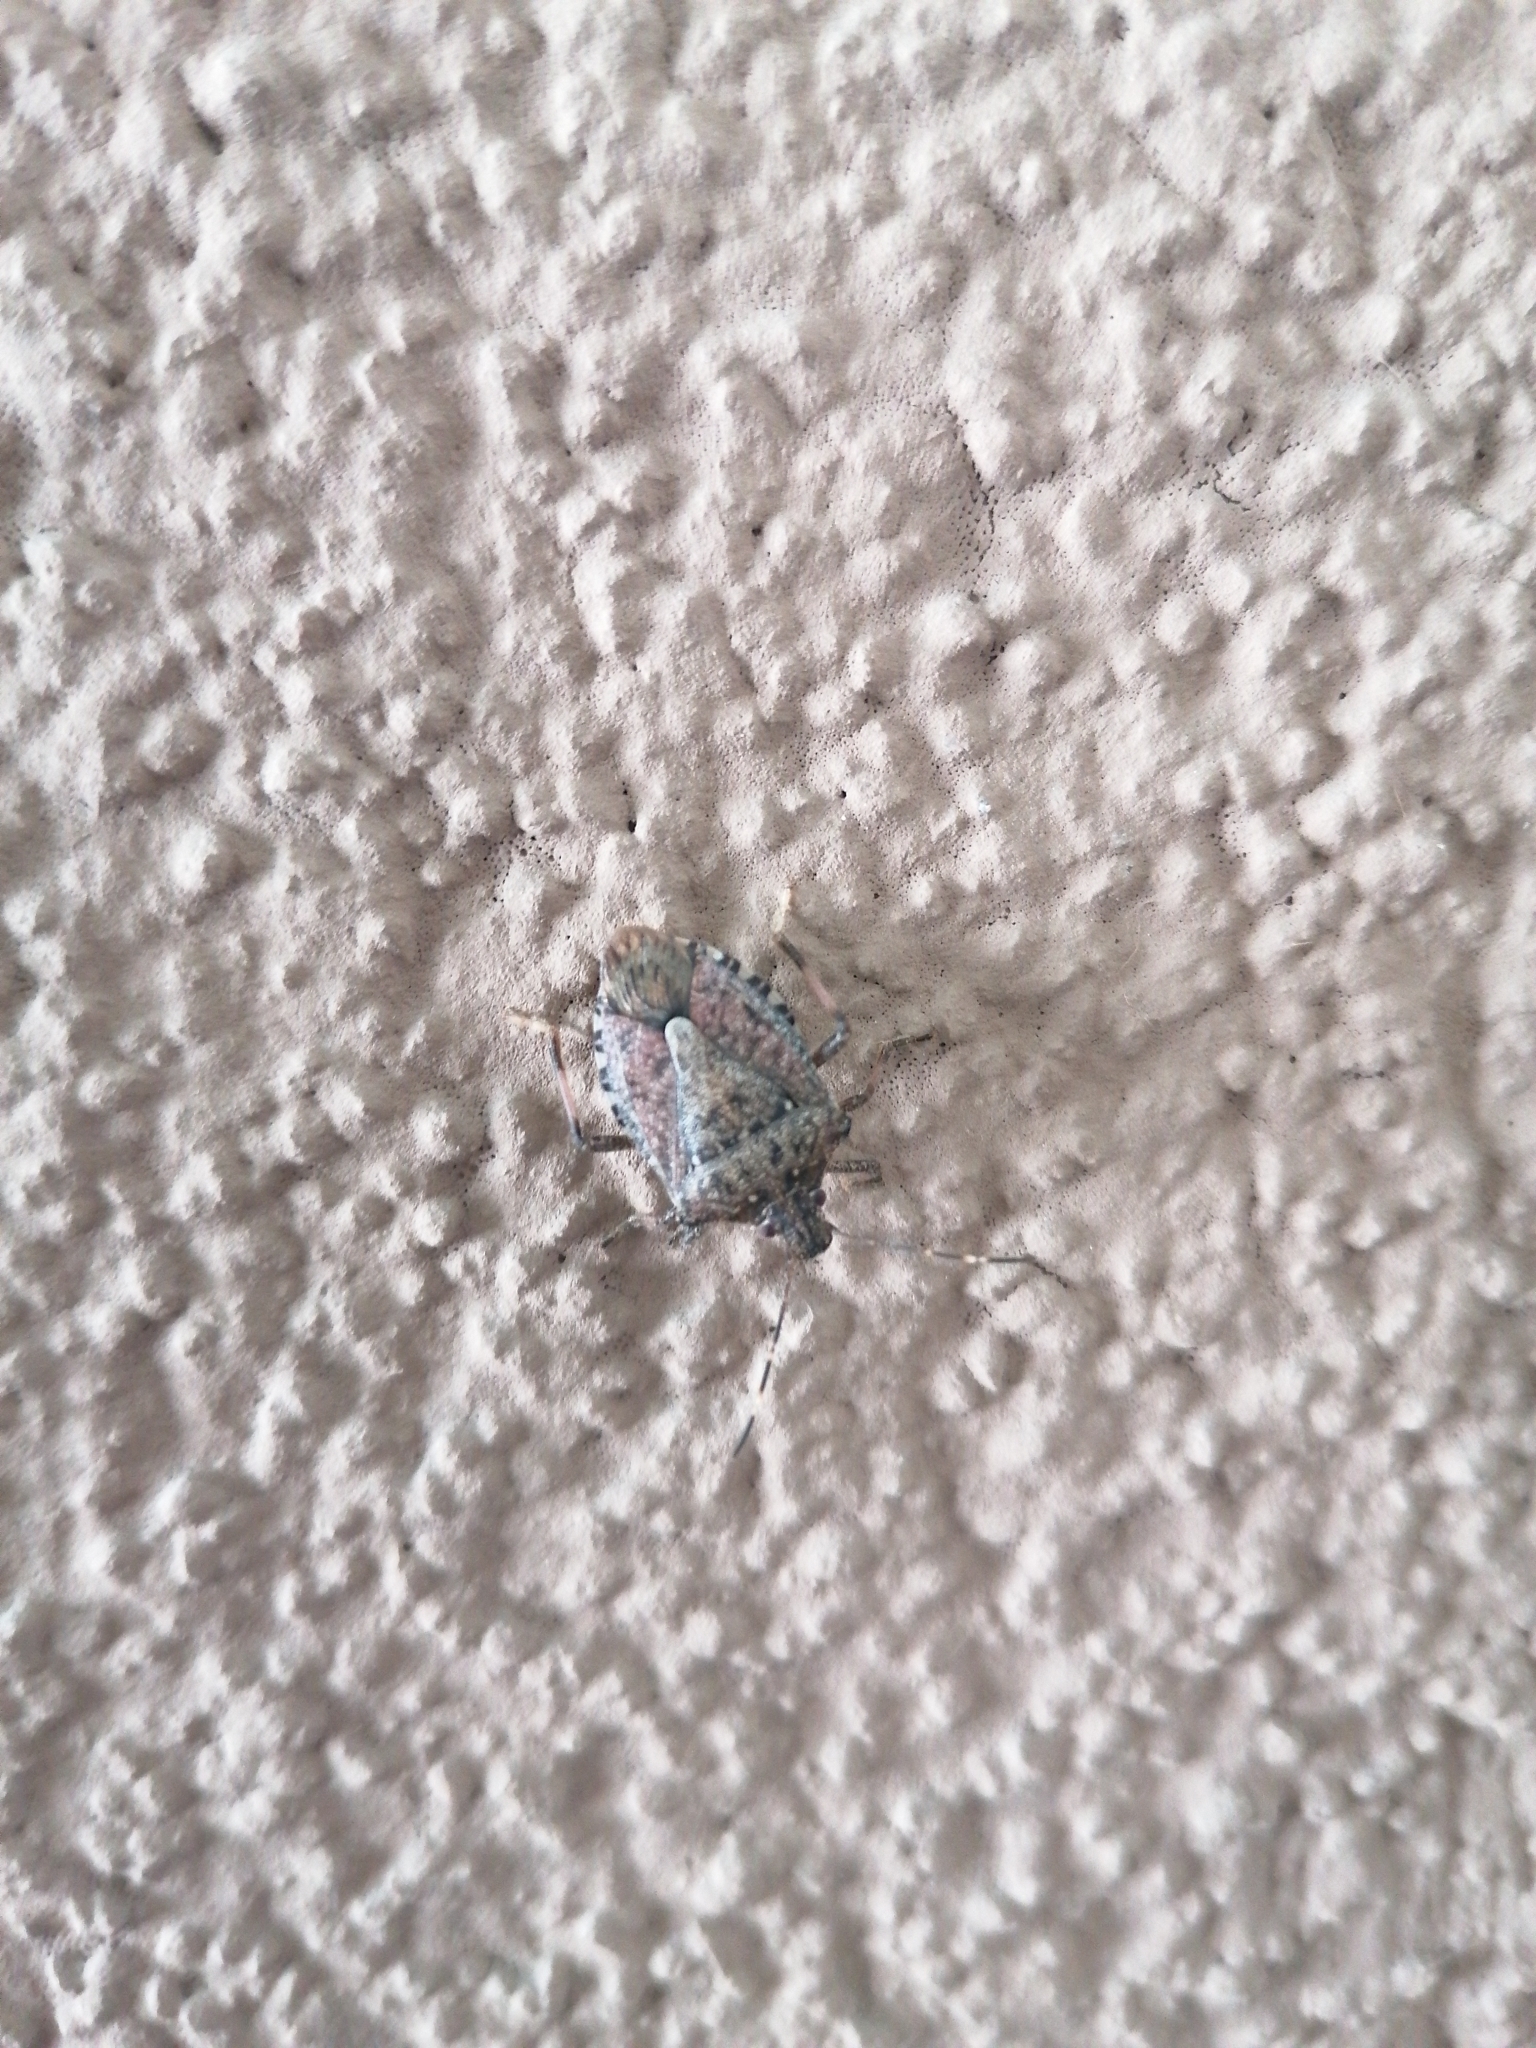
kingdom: Animalia
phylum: Arthropoda
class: Insecta
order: Hemiptera
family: Pentatomidae
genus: Halyomorpha
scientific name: Halyomorpha halys
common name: Brown marmorated stink bug
